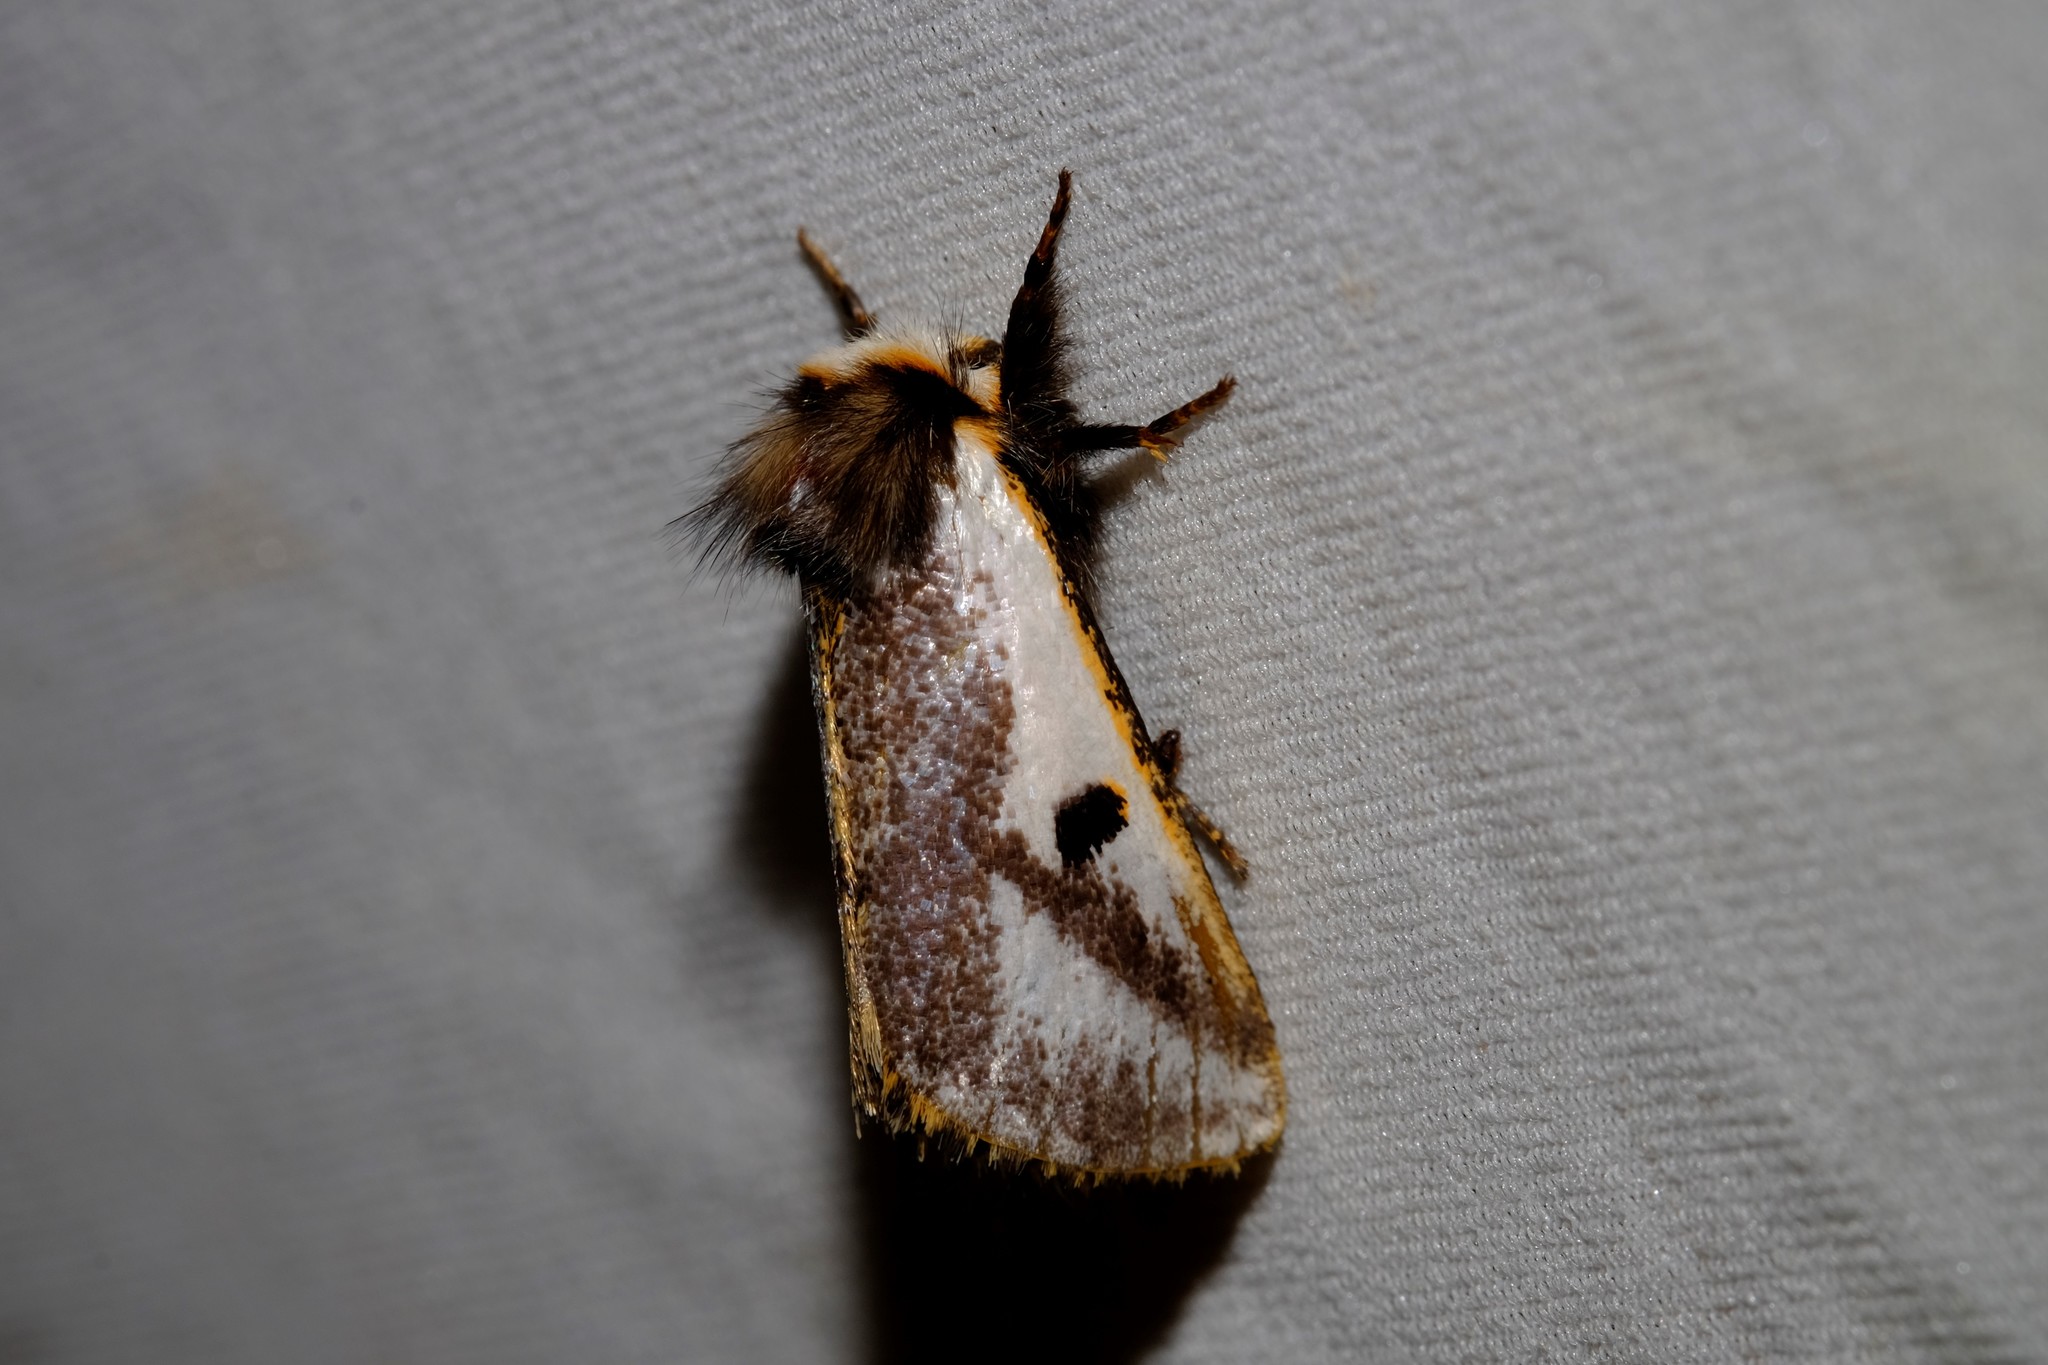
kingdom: Animalia
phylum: Arthropoda
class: Insecta
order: Lepidoptera
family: Notodontidae
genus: Epicoma
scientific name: Epicoma melanospila
